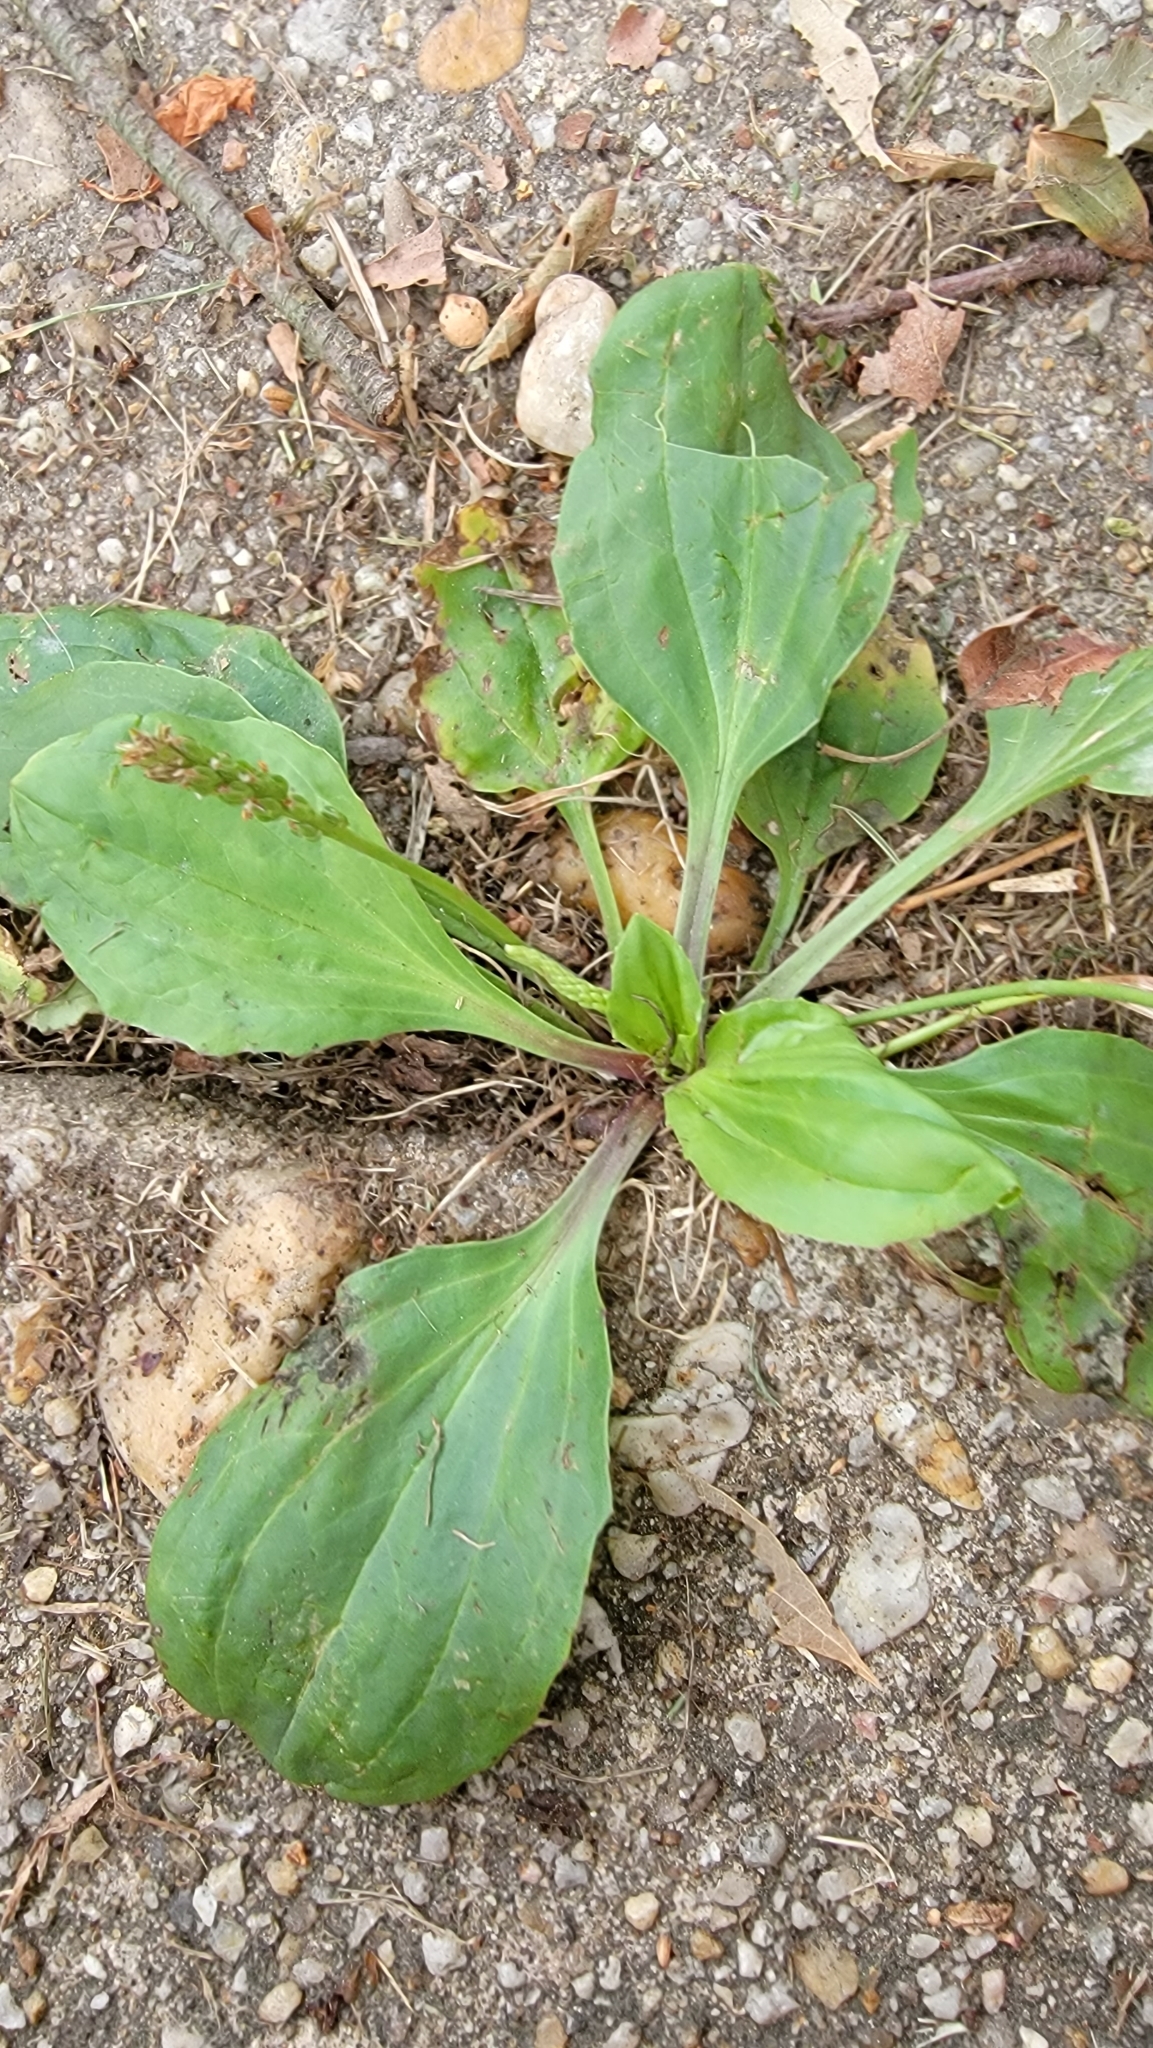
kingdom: Plantae
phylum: Tracheophyta
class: Magnoliopsida
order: Lamiales
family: Plantaginaceae
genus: Plantago
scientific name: Plantago rugelii
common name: American plantain
